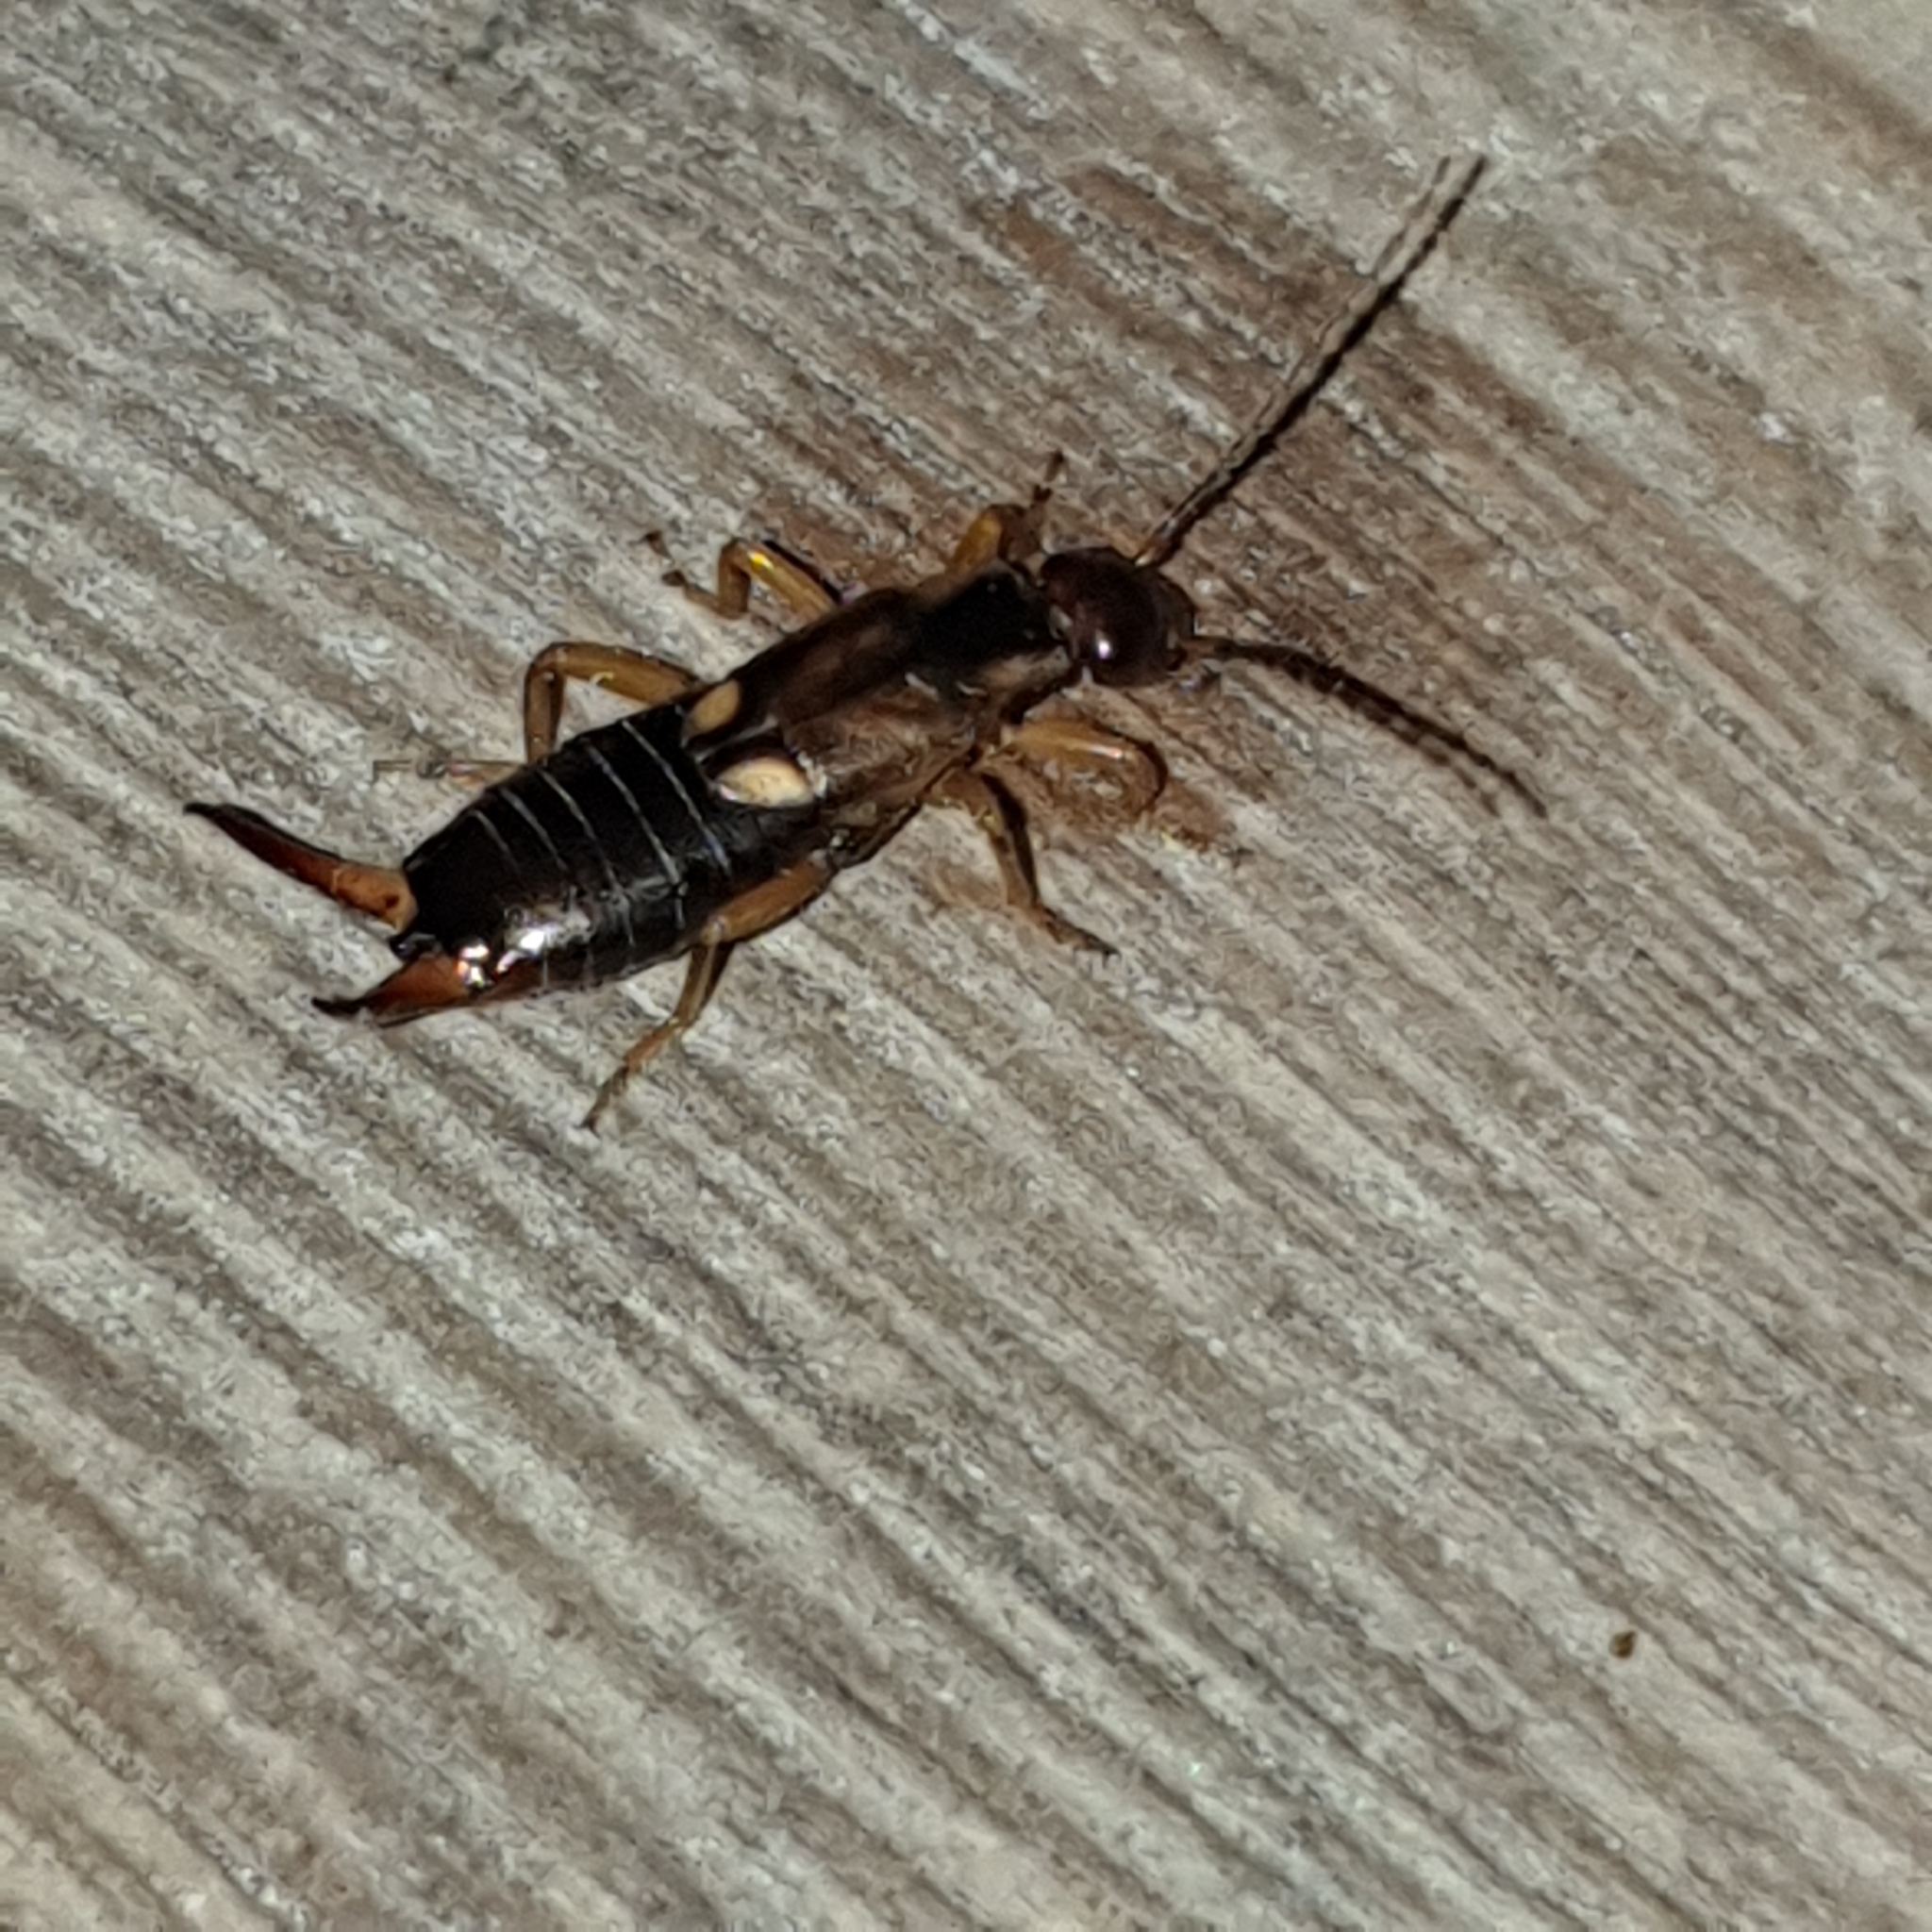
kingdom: Animalia
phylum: Arthropoda
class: Insecta
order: Dermaptera
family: Forficulidae
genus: Forficula
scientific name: Forficula
